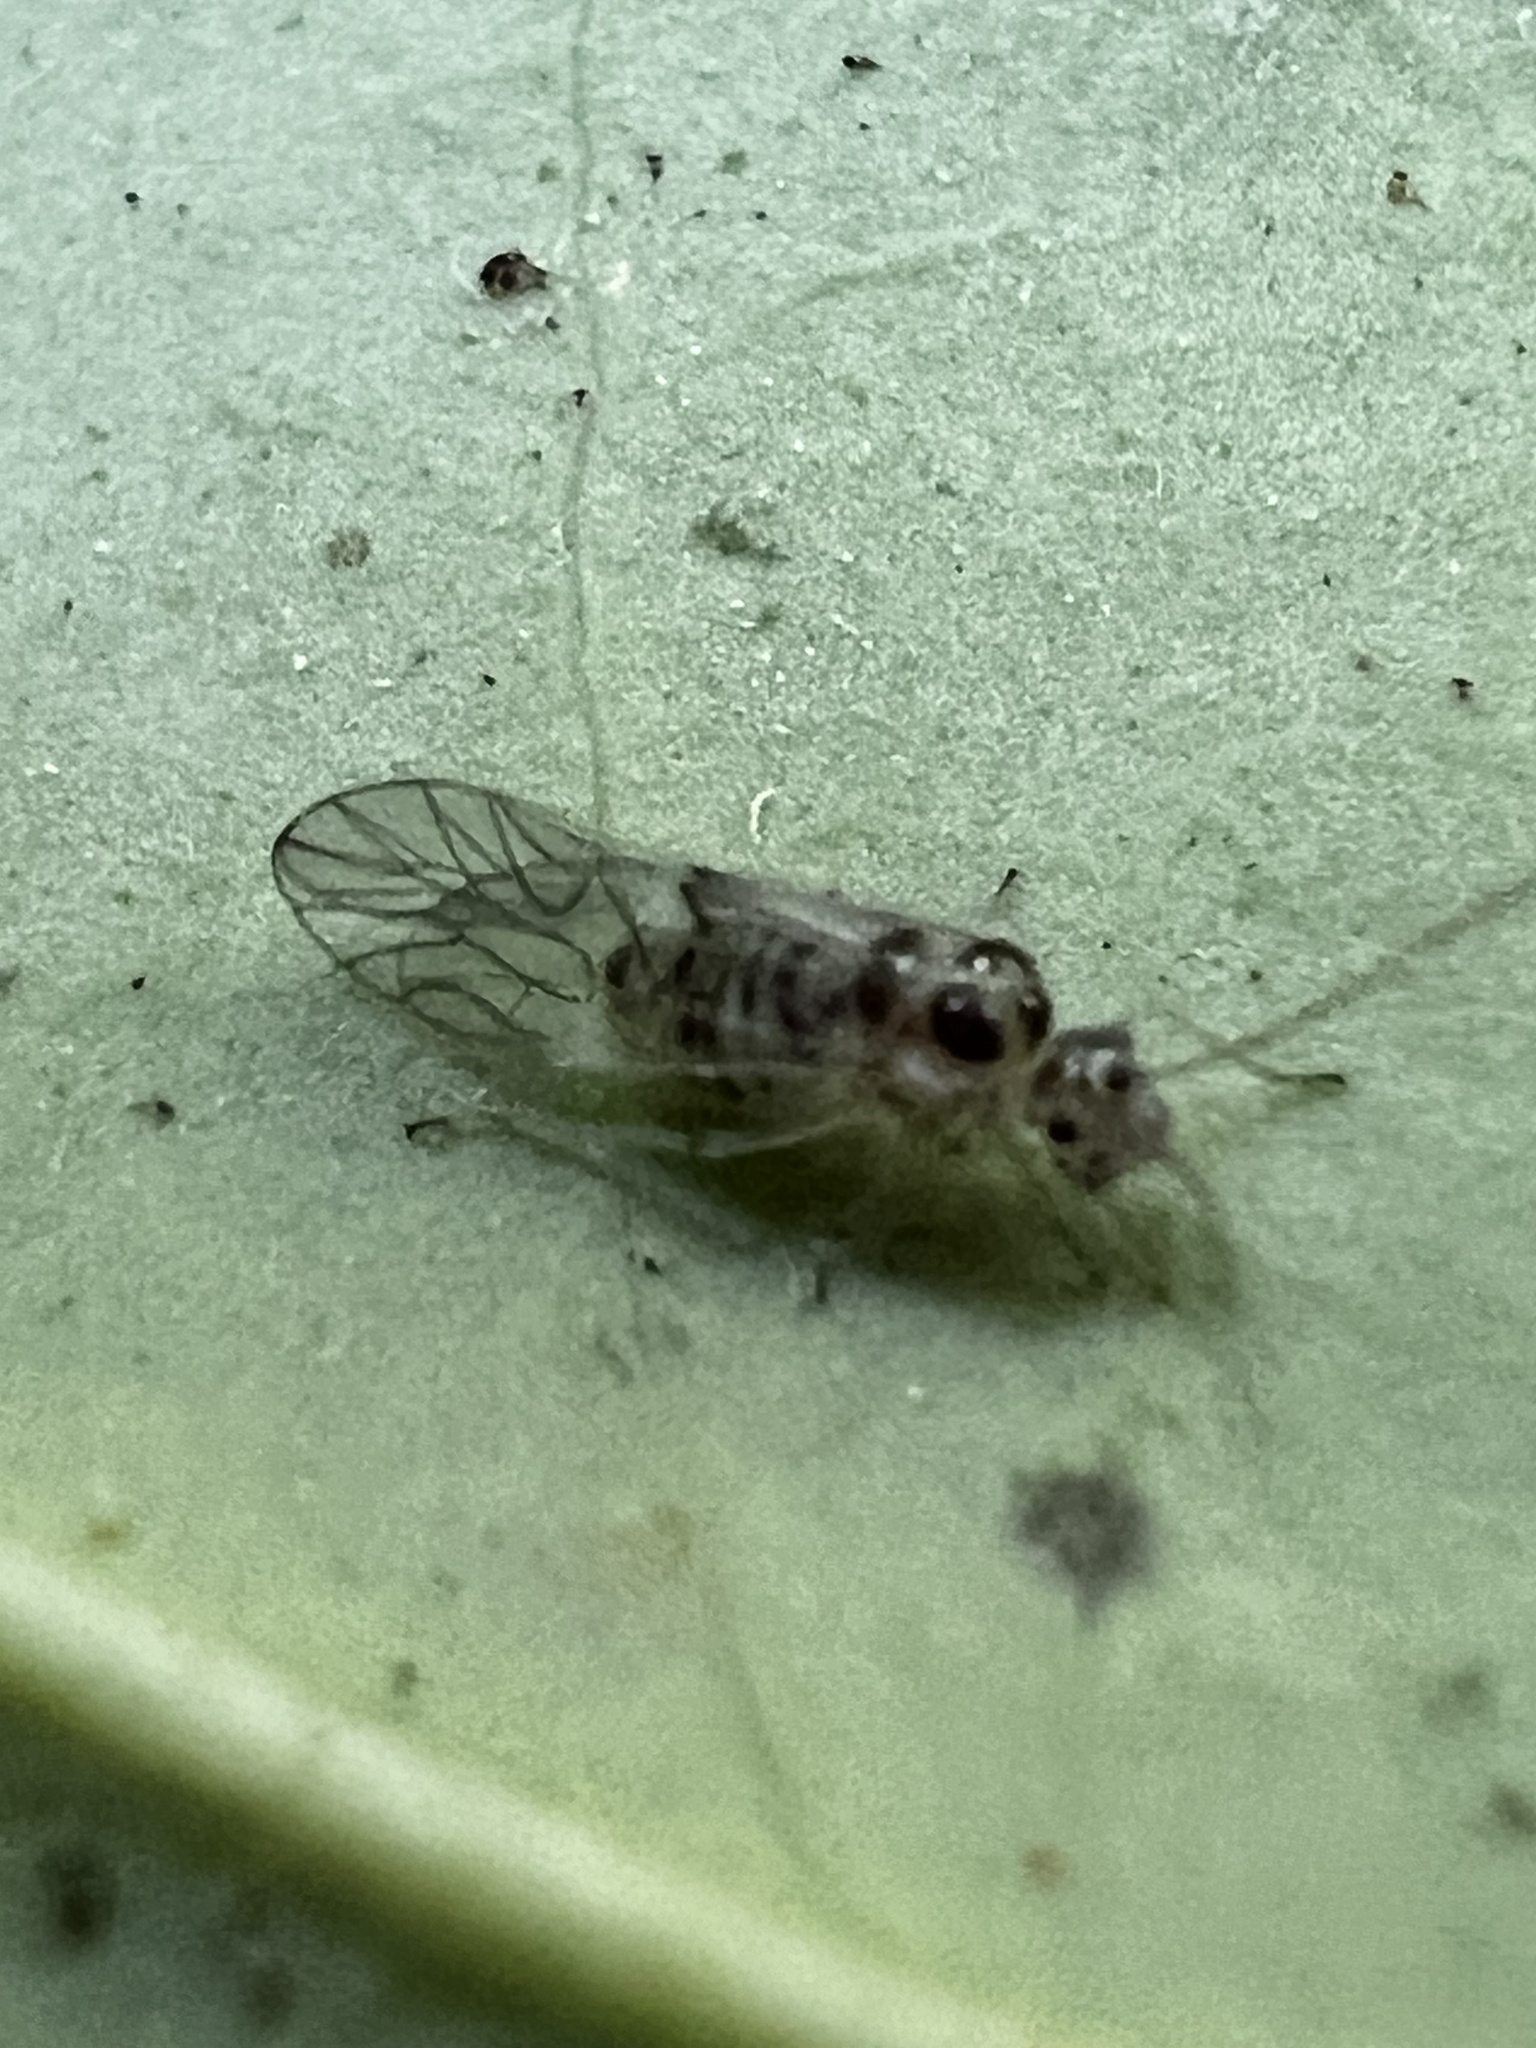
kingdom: Animalia
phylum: Arthropoda
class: Insecta
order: Psocodea
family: Dasydemellidae
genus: Teliapsocus
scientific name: Teliapsocus conterminus
